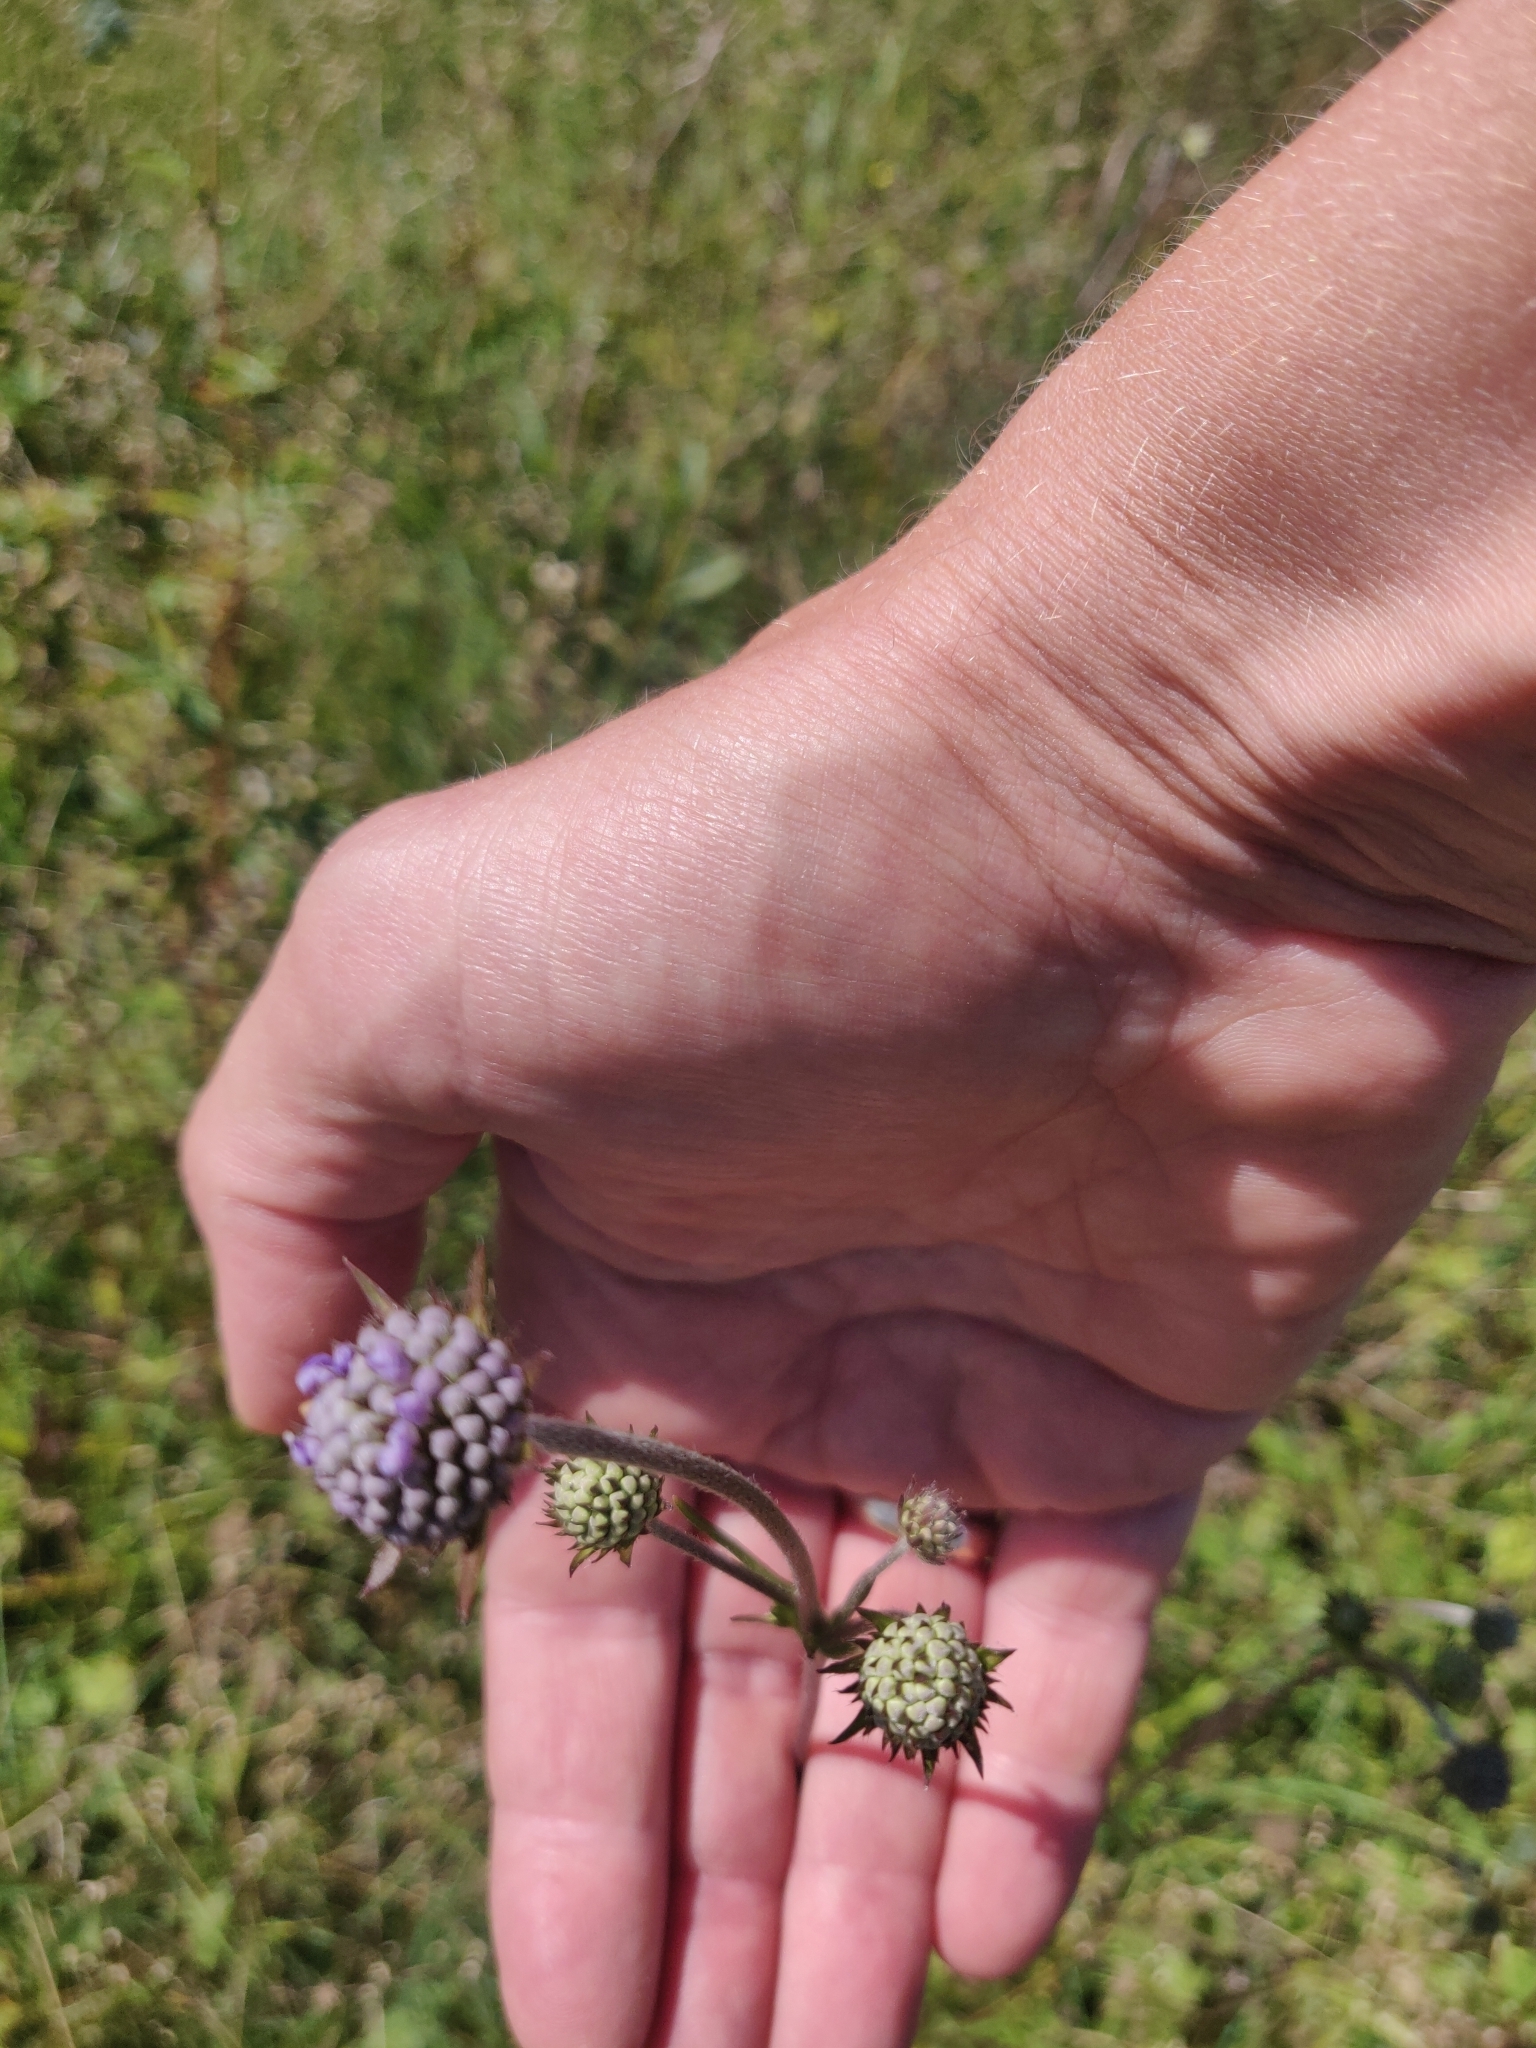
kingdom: Plantae
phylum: Tracheophyta
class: Magnoliopsida
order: Dipsacales
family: Caprifoliaceae
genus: Succisa
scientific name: Succisa pratensis
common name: Devil's-bit
